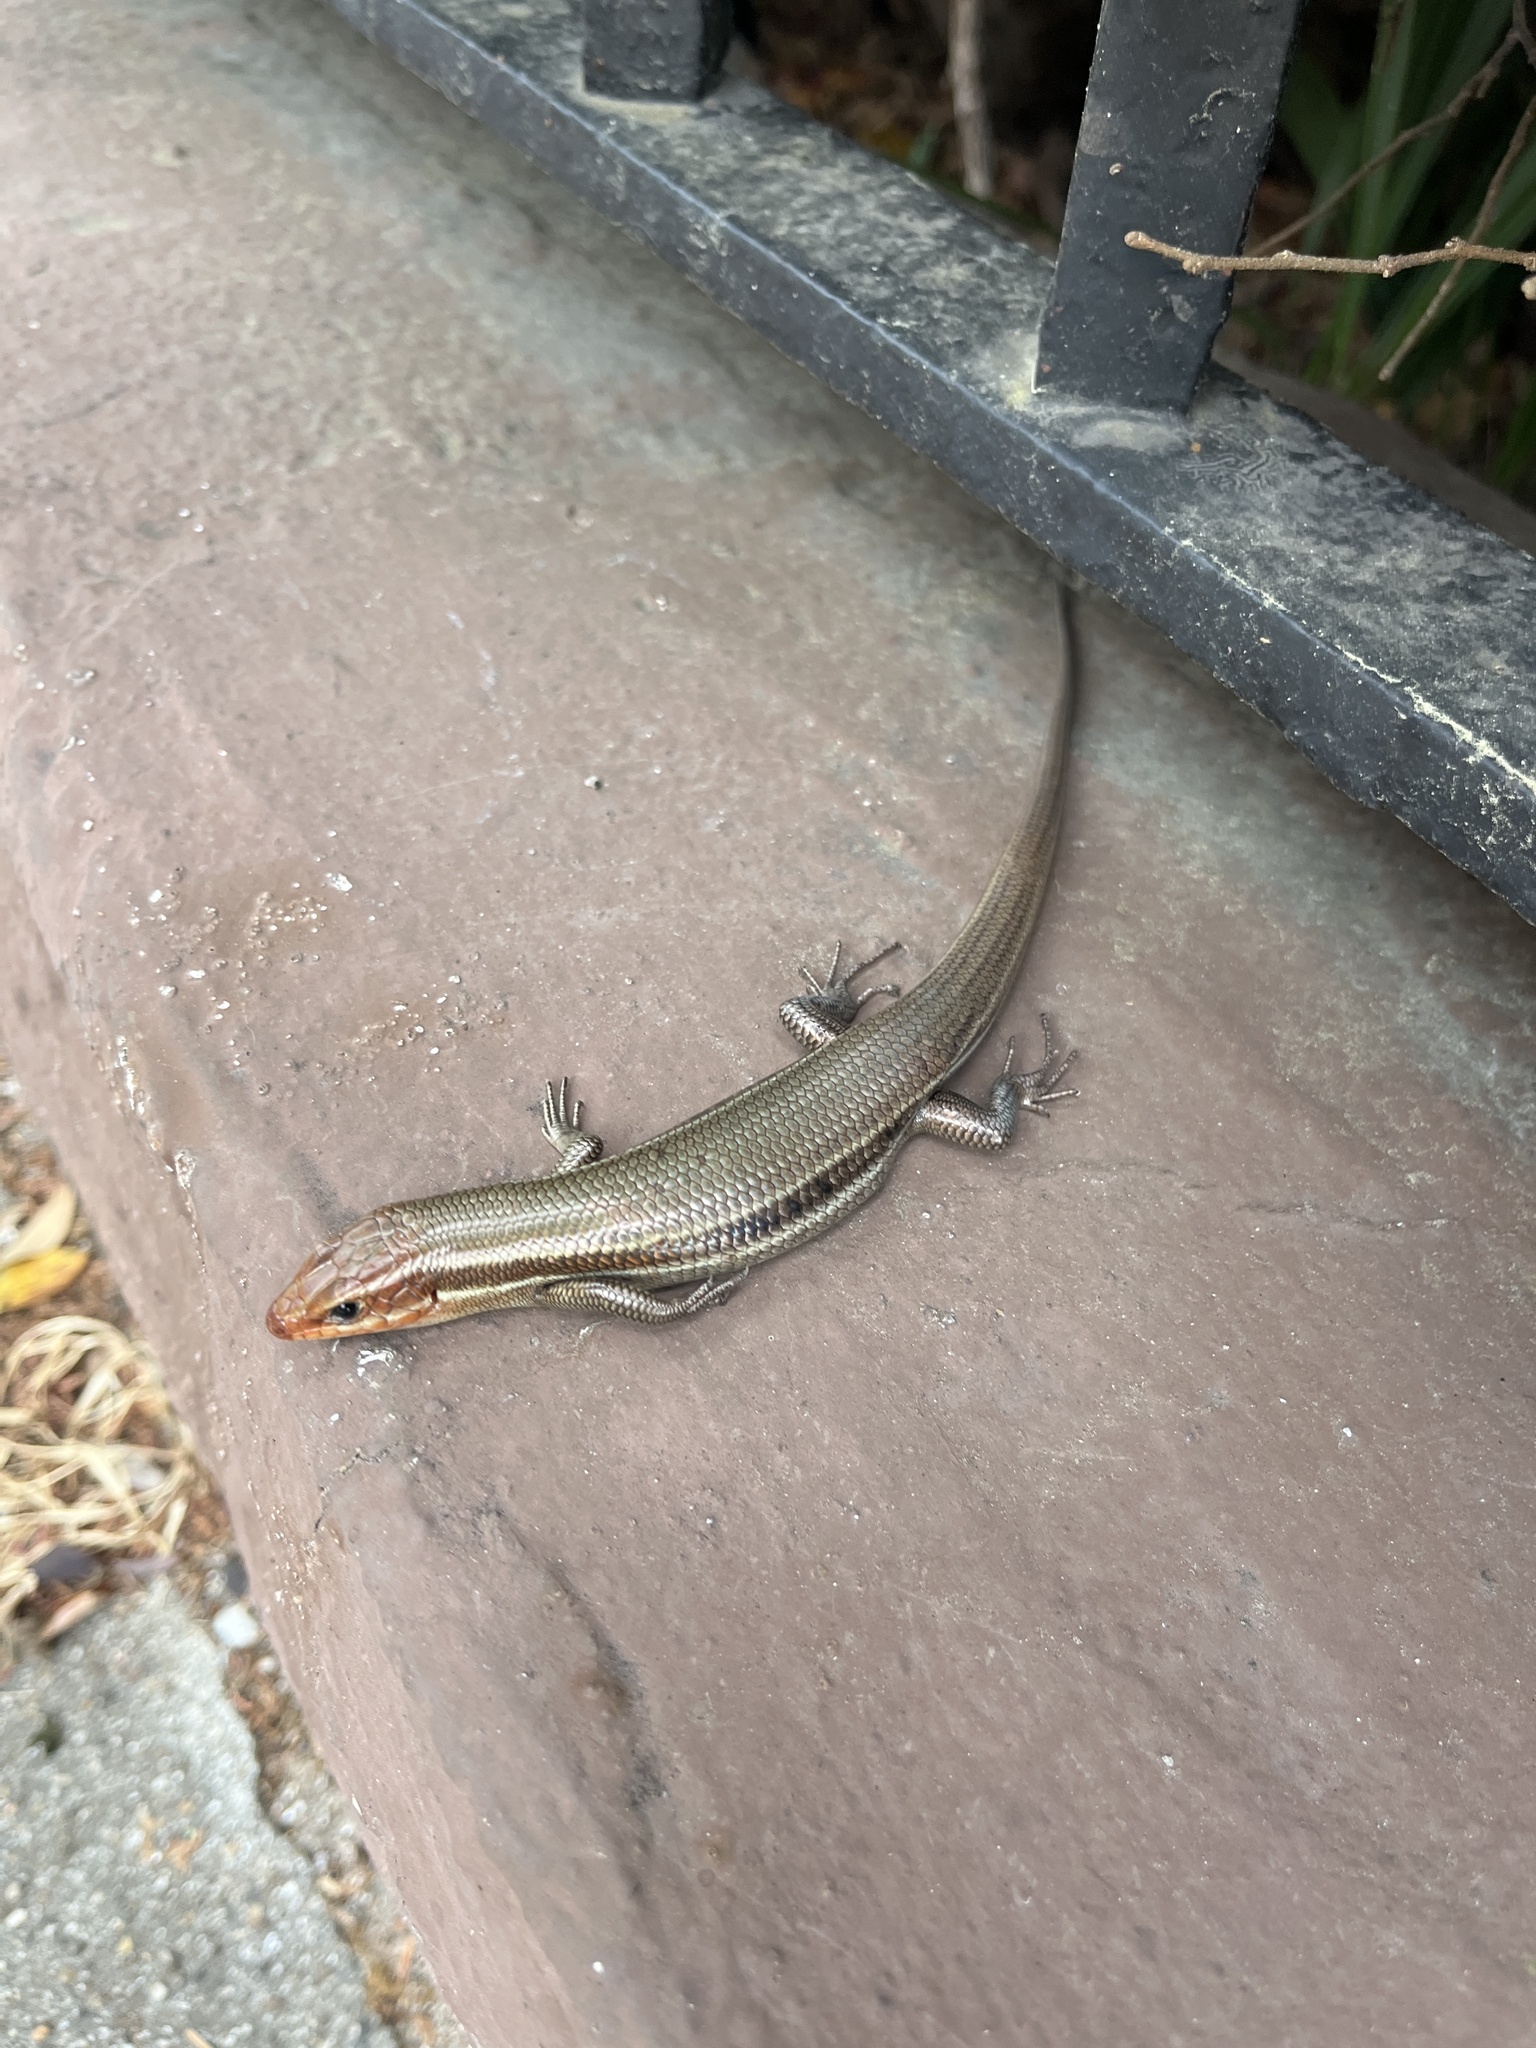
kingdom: Animalia
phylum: Chordata
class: Squamata
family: Scincidae
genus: Plestiodon
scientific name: Plestiodon inexpectatus
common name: Southeastern five-lined skink
